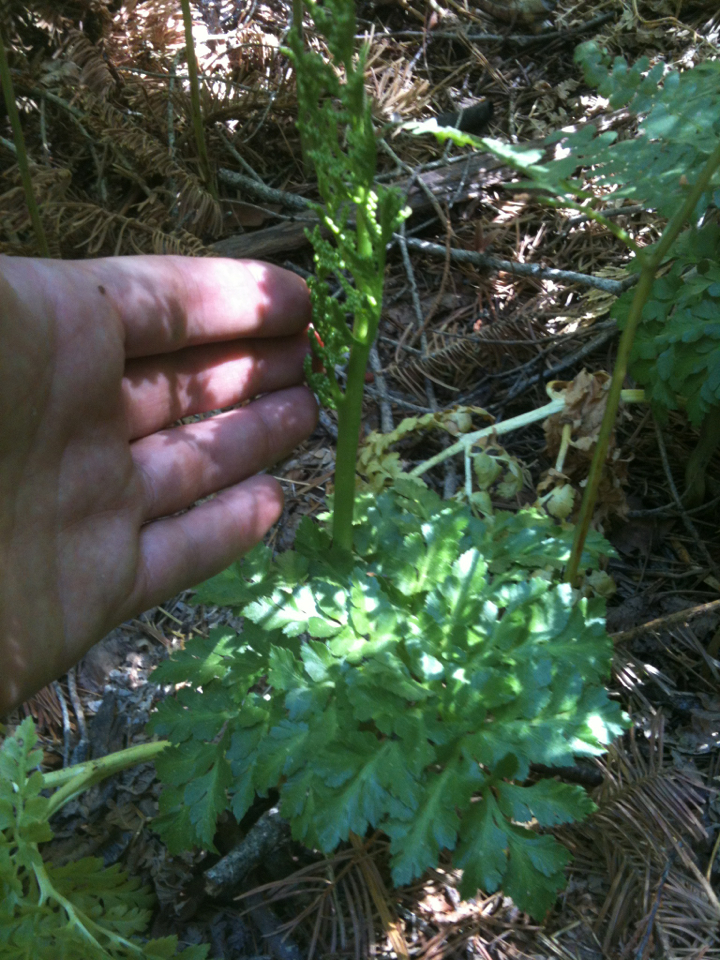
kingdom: Plantae
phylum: Tracheophyta
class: Polypodiopsida
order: Ophioglossales
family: Ophioglossaceae
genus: Sceptridium
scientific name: Sceptridium multifidum
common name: Leathery grape fern
